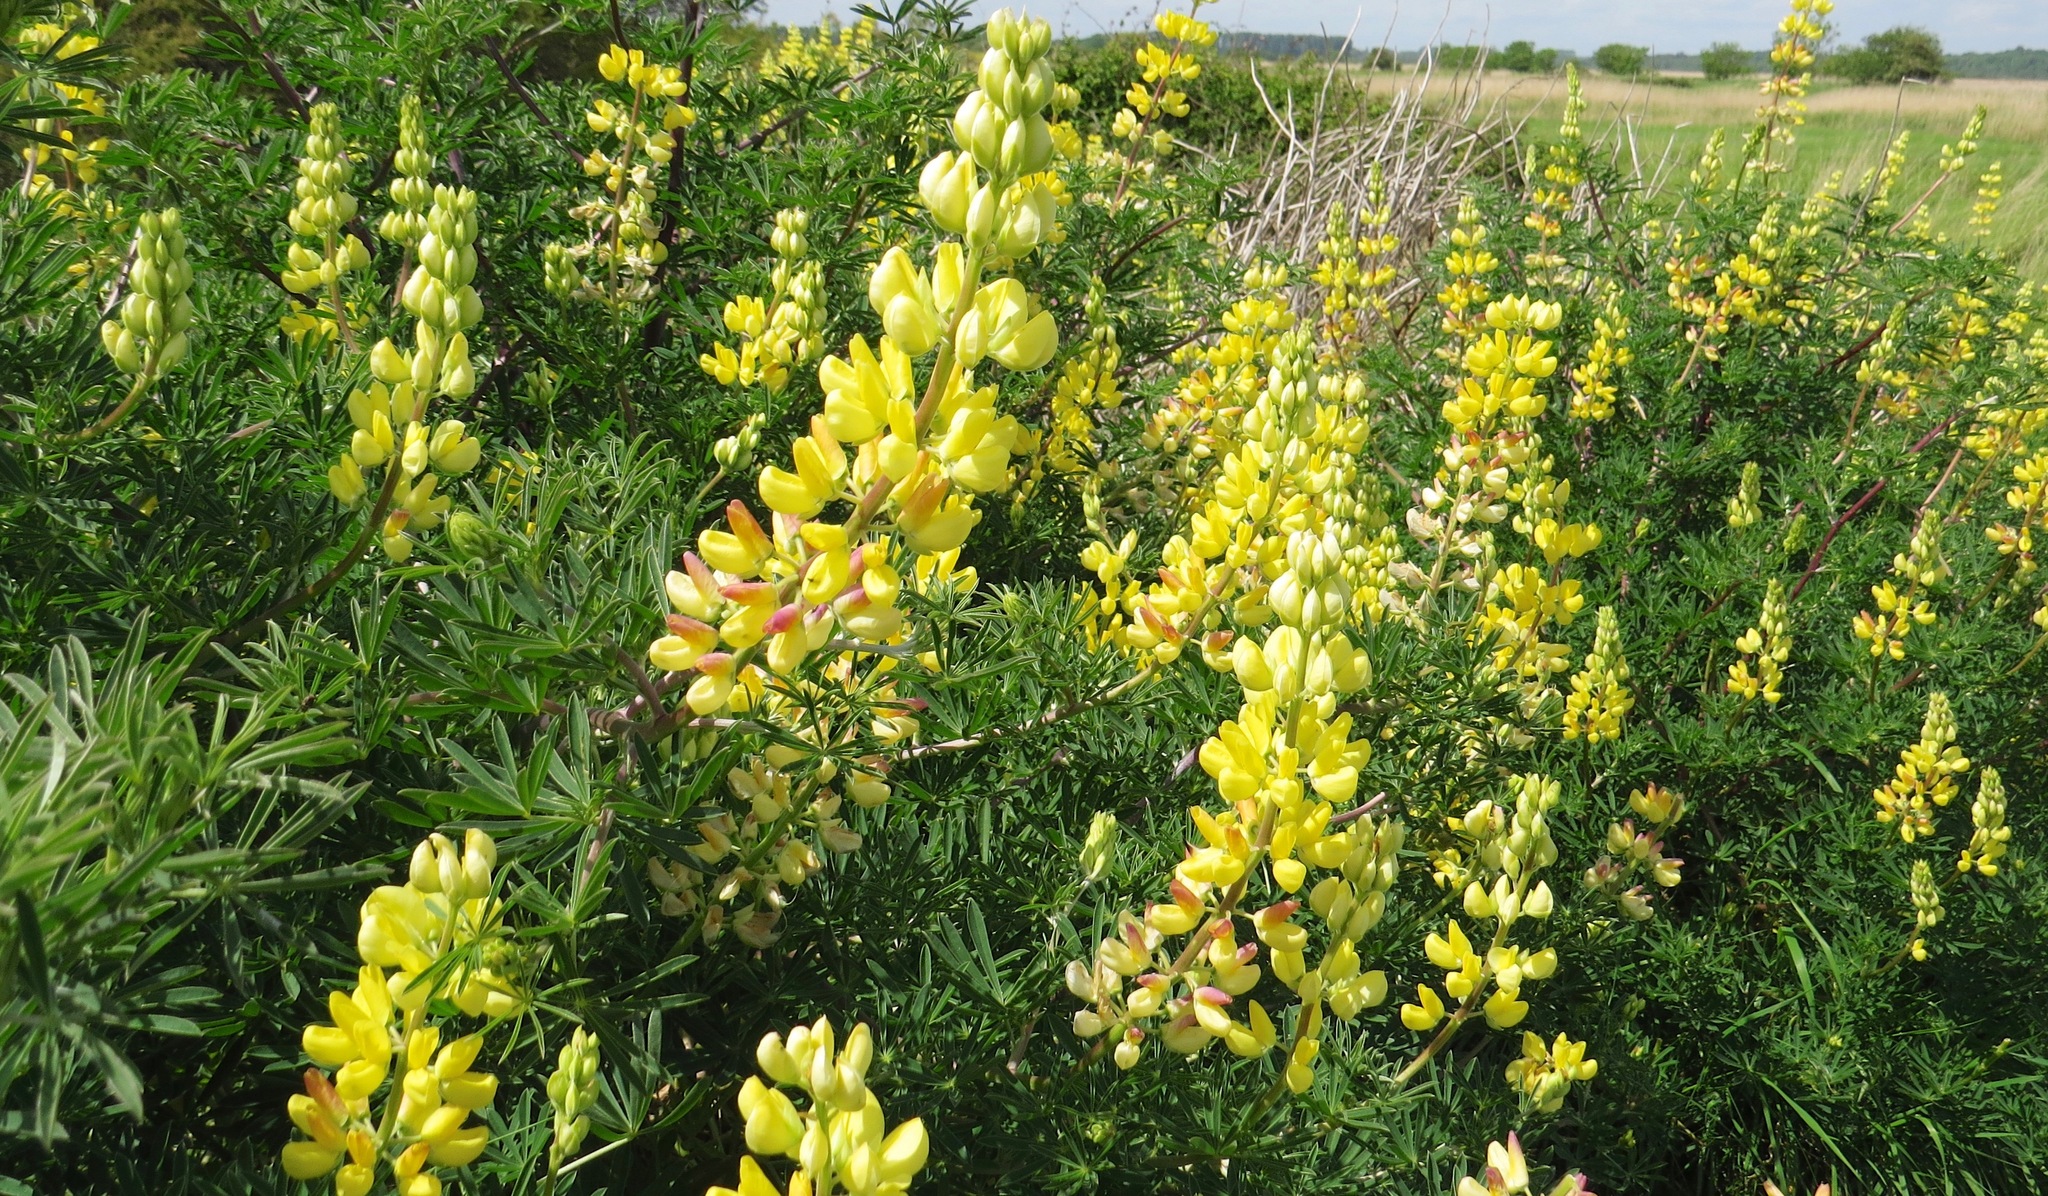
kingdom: Plantae
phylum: Tracheophyta
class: Magnoliopsida
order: Fabales
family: Fabaceae
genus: Lupinus
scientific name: Lupinus arboreus
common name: Yellow bush lupine
